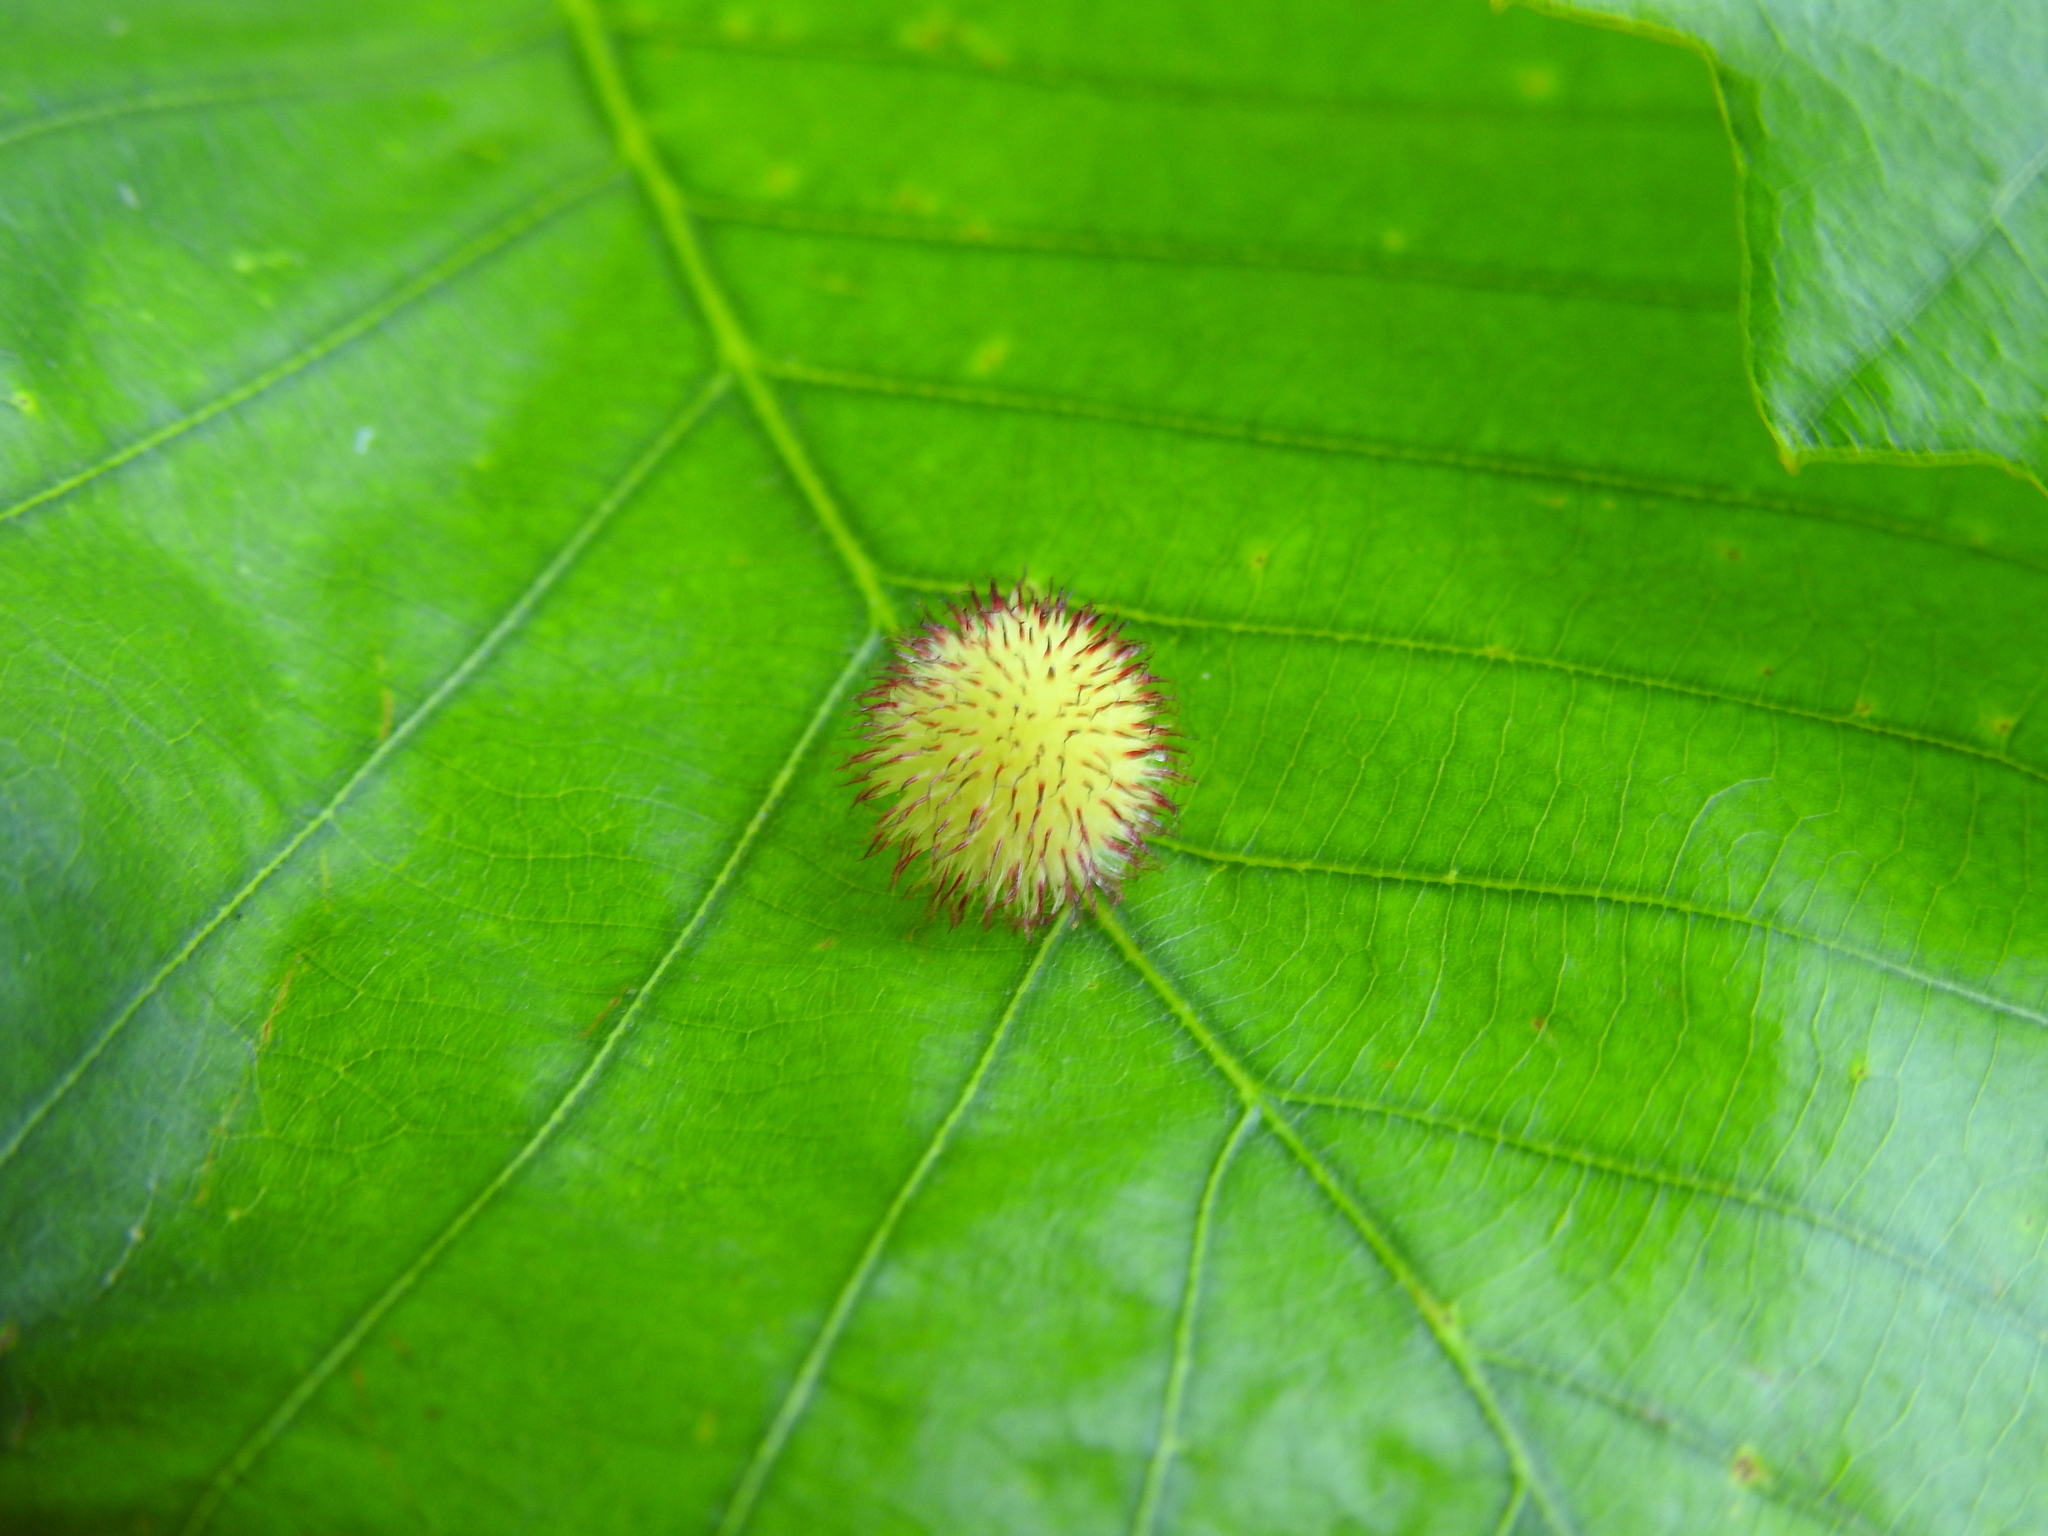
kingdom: Animalia
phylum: Arthropoda
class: Insecta
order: Hymenoptera
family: Cynipidae
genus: Acraspis
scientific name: Acraspis
